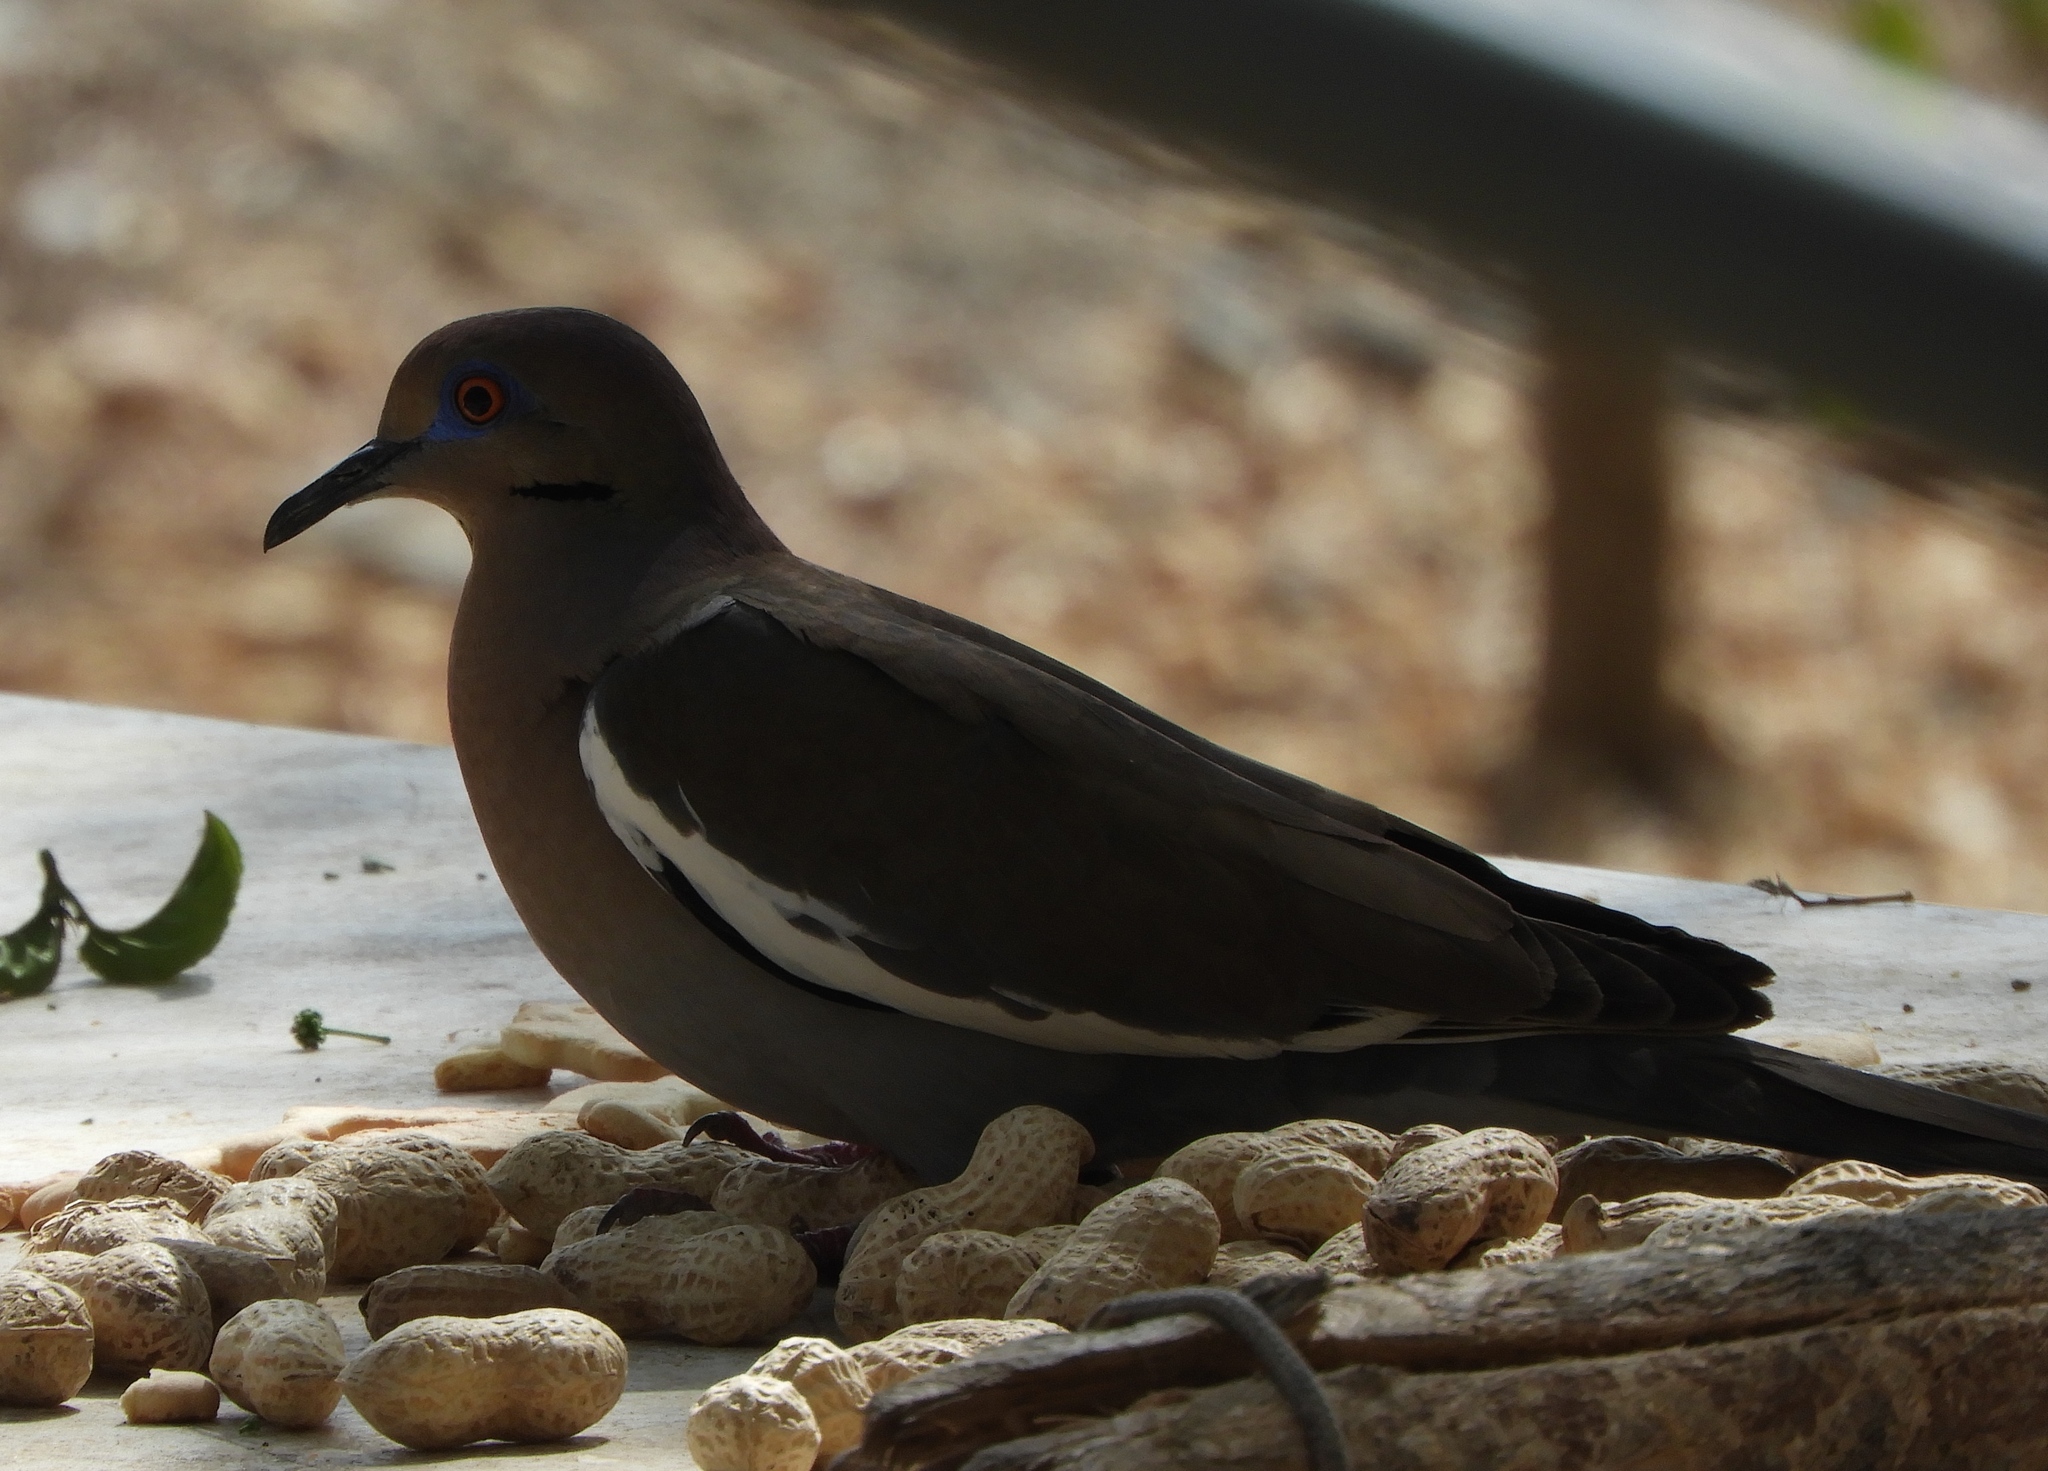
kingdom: Animalia
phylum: Chordata
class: Aves
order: Columbiformes
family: Columbidae
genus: Zenaida
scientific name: Zenaida asiatica
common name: White-winged dove
